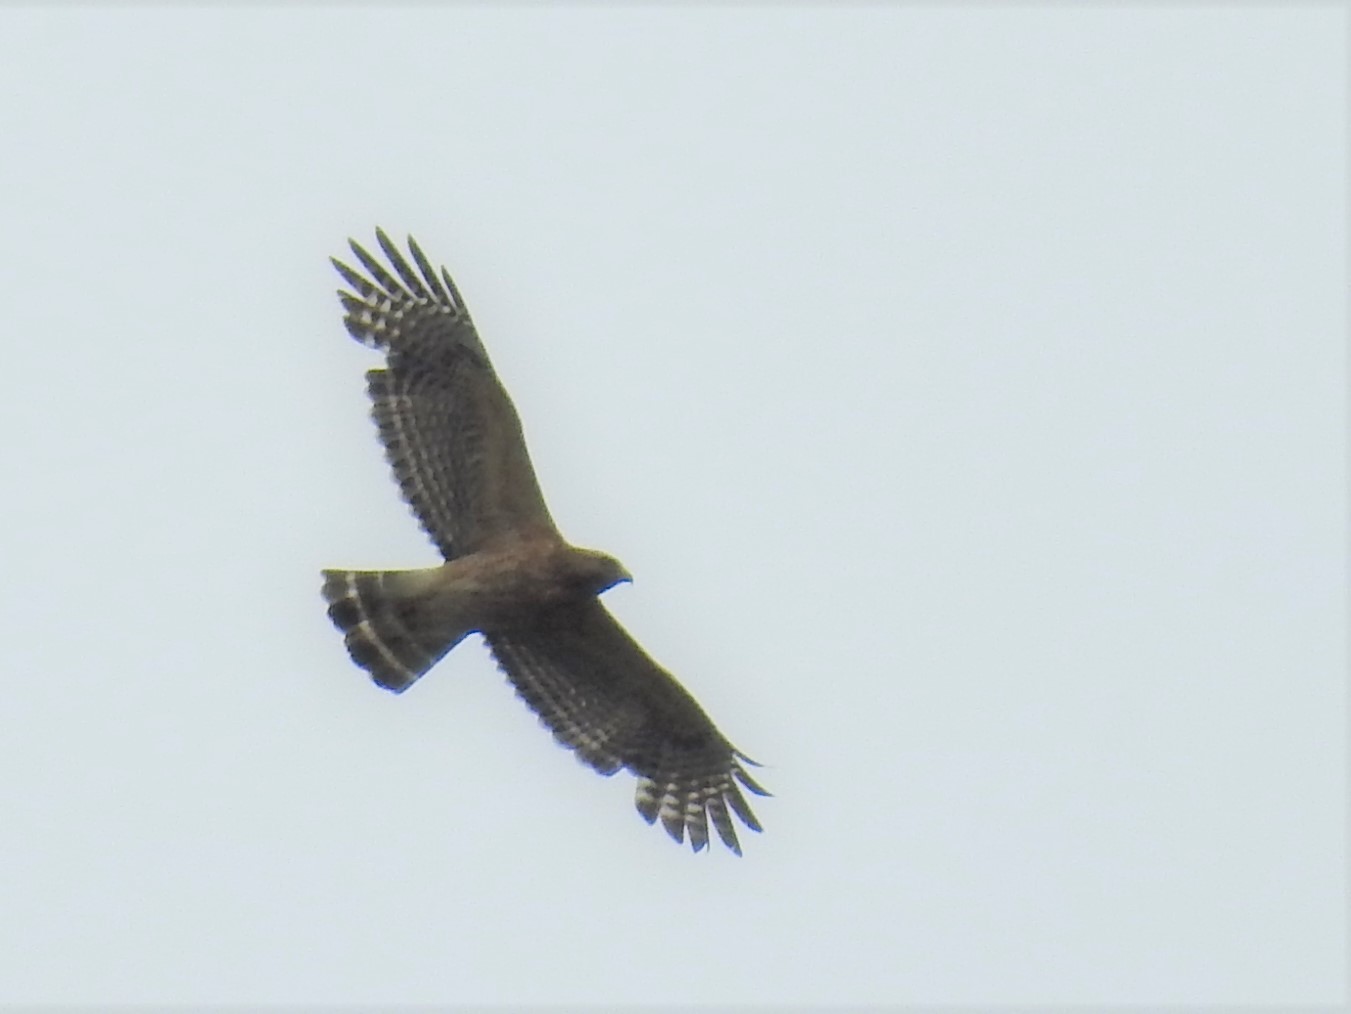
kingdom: Animalia
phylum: Chordata
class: Aves
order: Accipitriformes
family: Accipitridae
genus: Buteo
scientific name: Buteo lineatus
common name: Red-shouldered hawk
